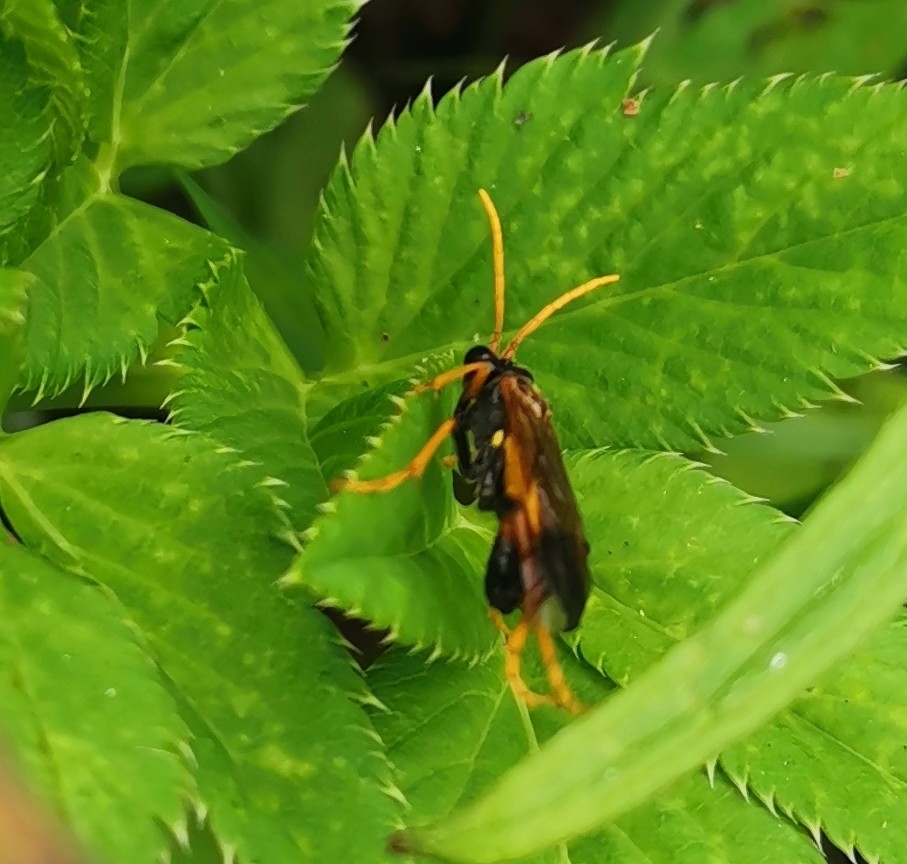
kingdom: Animalia
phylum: Arthropoda
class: Insecta
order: Hymenoptera
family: Tenthredinidae
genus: Tenthredo
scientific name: Tenthredo campestris
